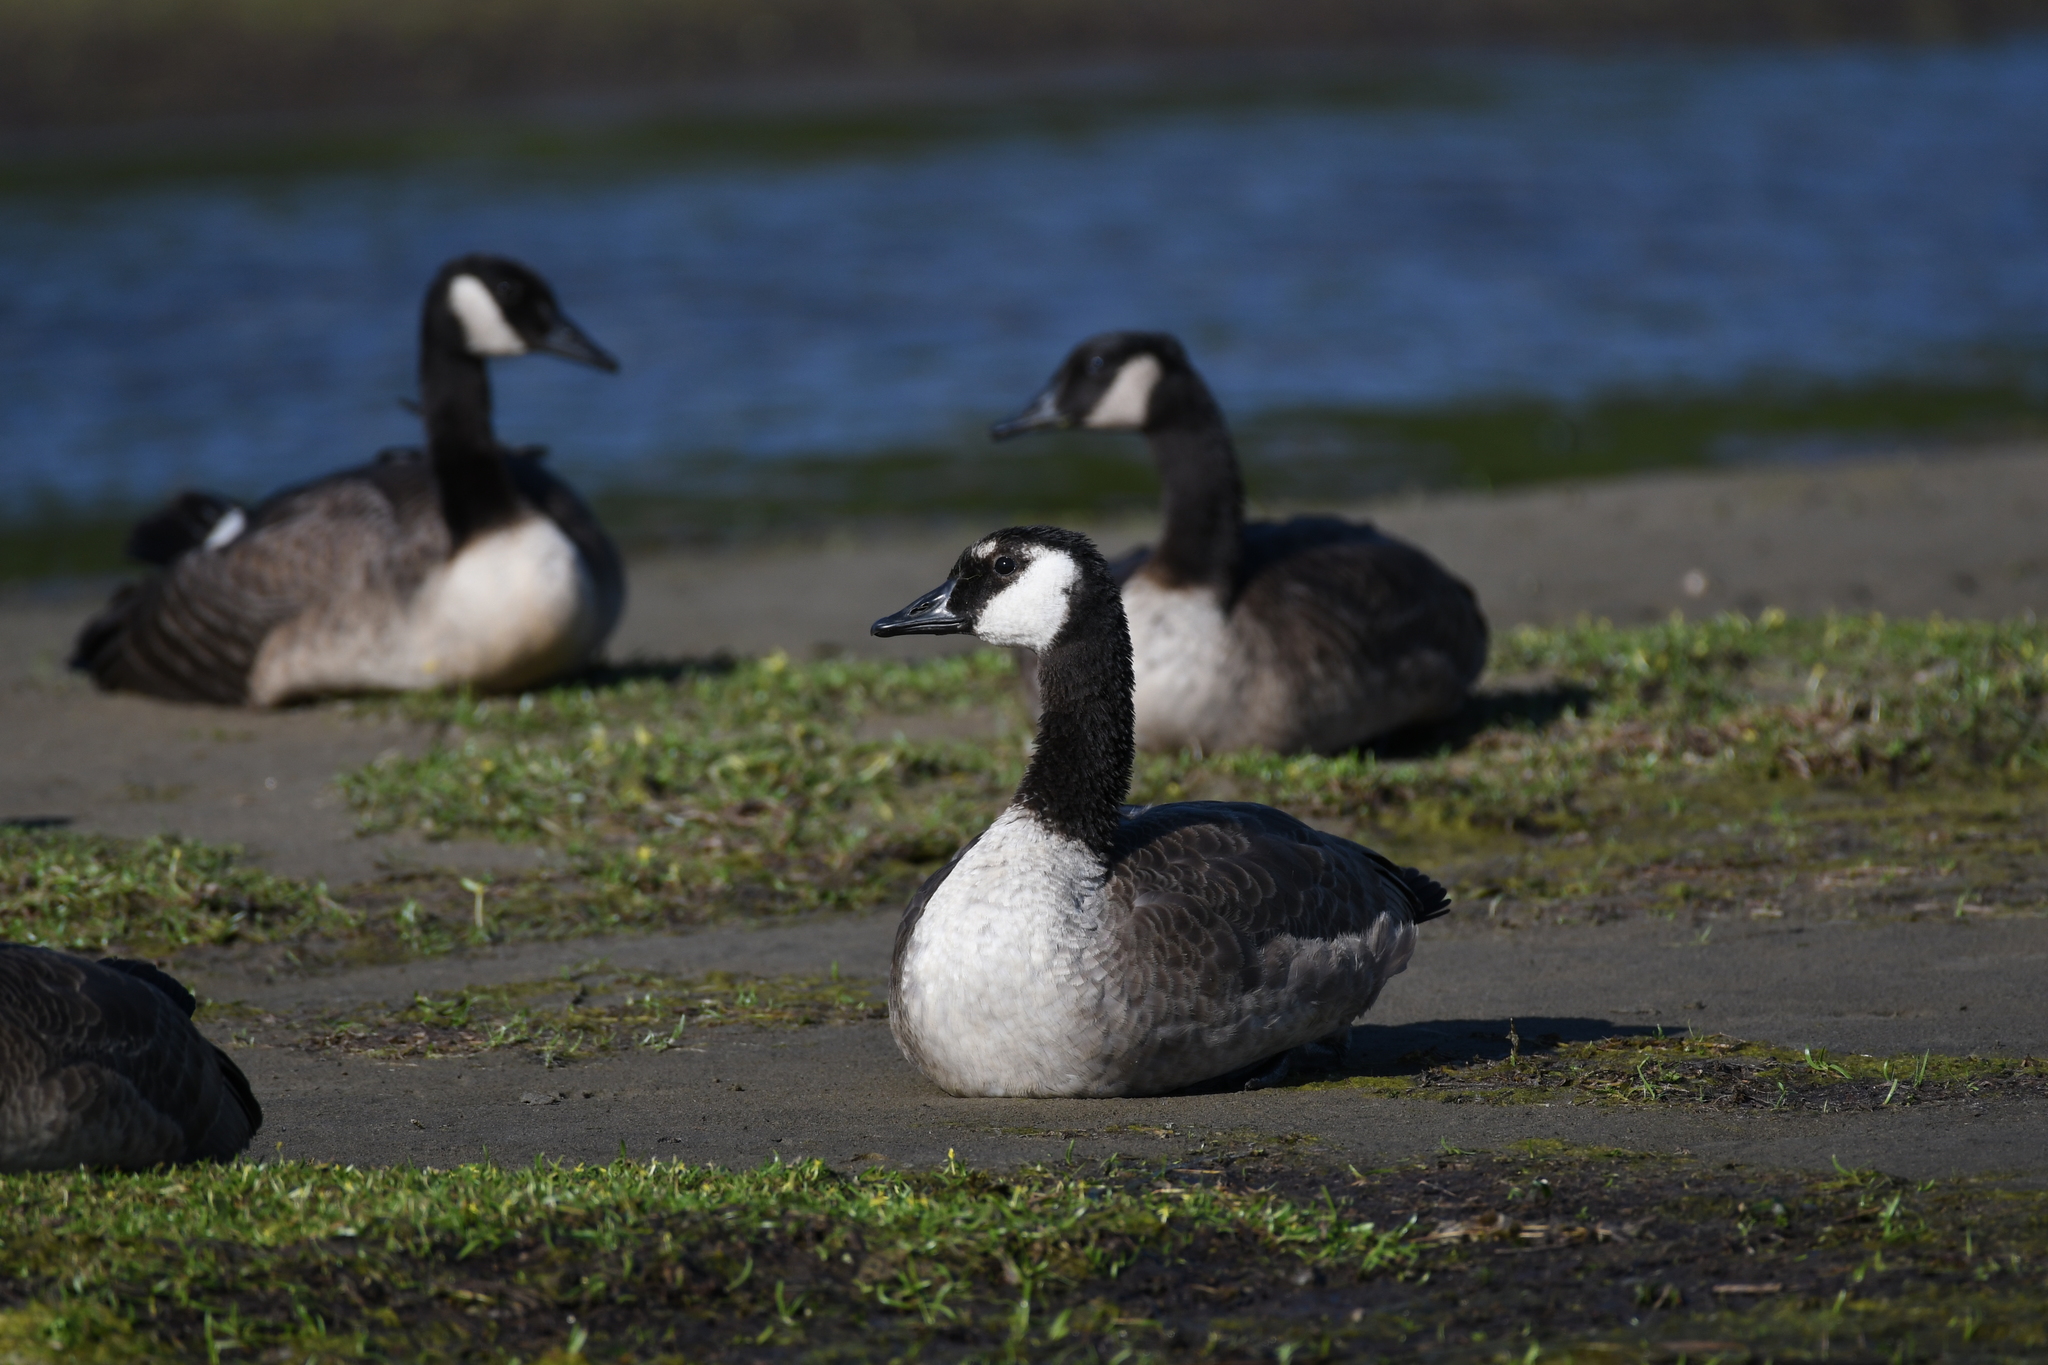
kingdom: Animalia
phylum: Chordata
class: Aves
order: Anseriformes
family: Anatidae
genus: Branta
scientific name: Branta canadensis
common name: Canada goose
